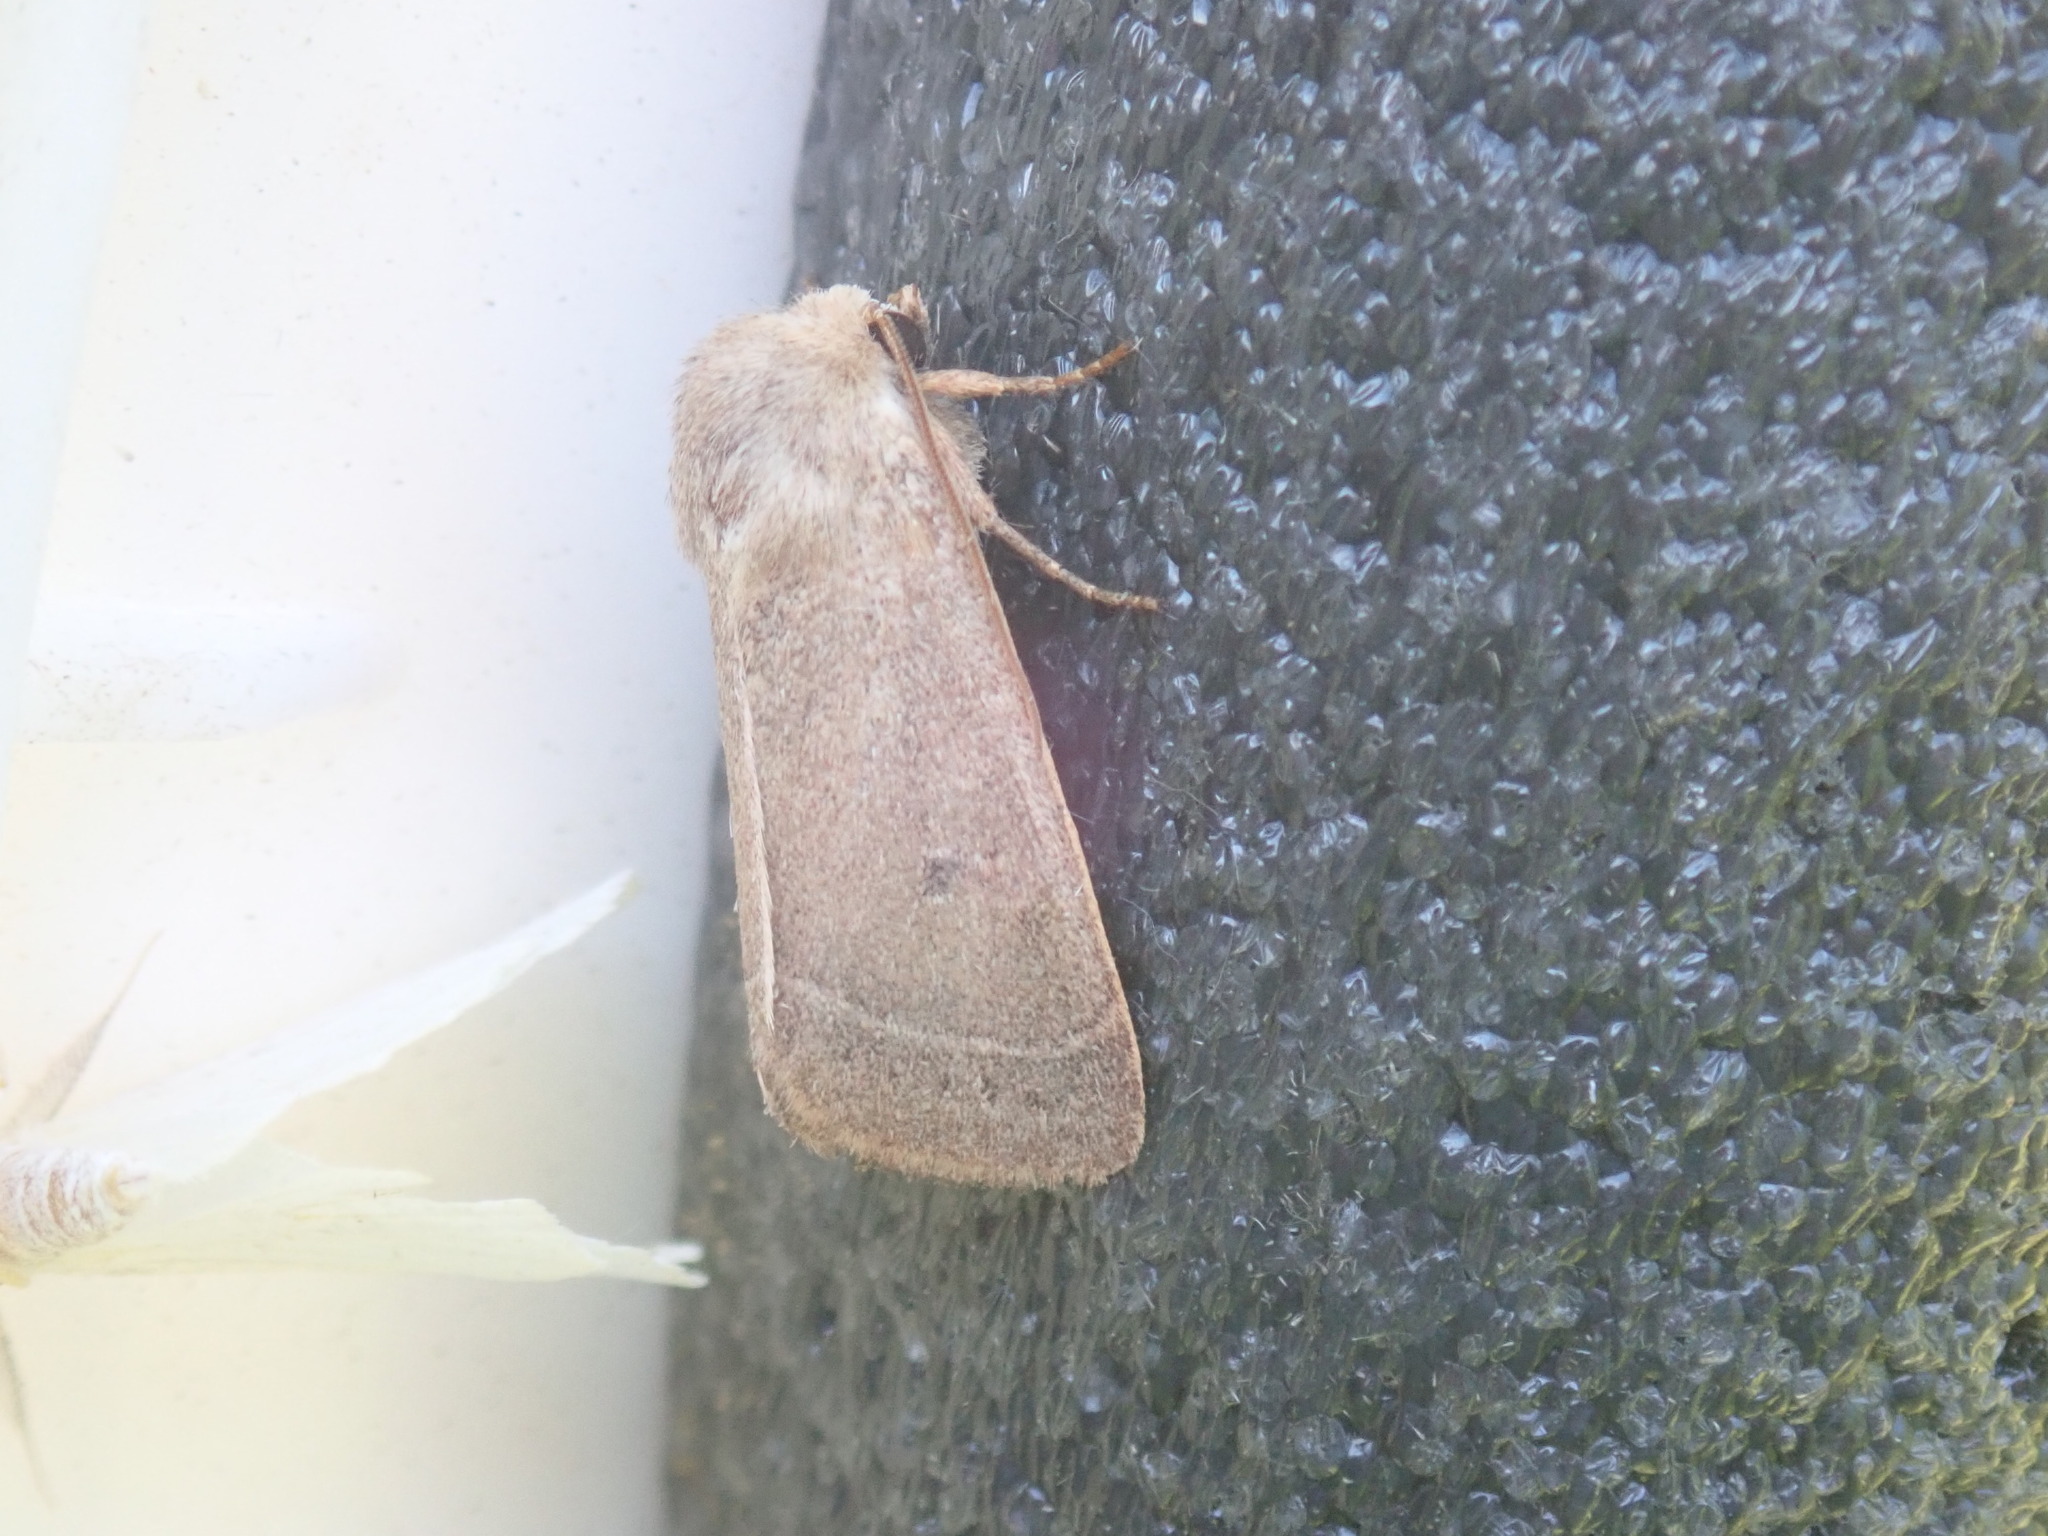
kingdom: Animalia
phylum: Arthropoda
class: Insecta
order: Lepidoptera
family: Noctuidae
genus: Ulolonche
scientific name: Ulolonche culea
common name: Sheathed quaker
